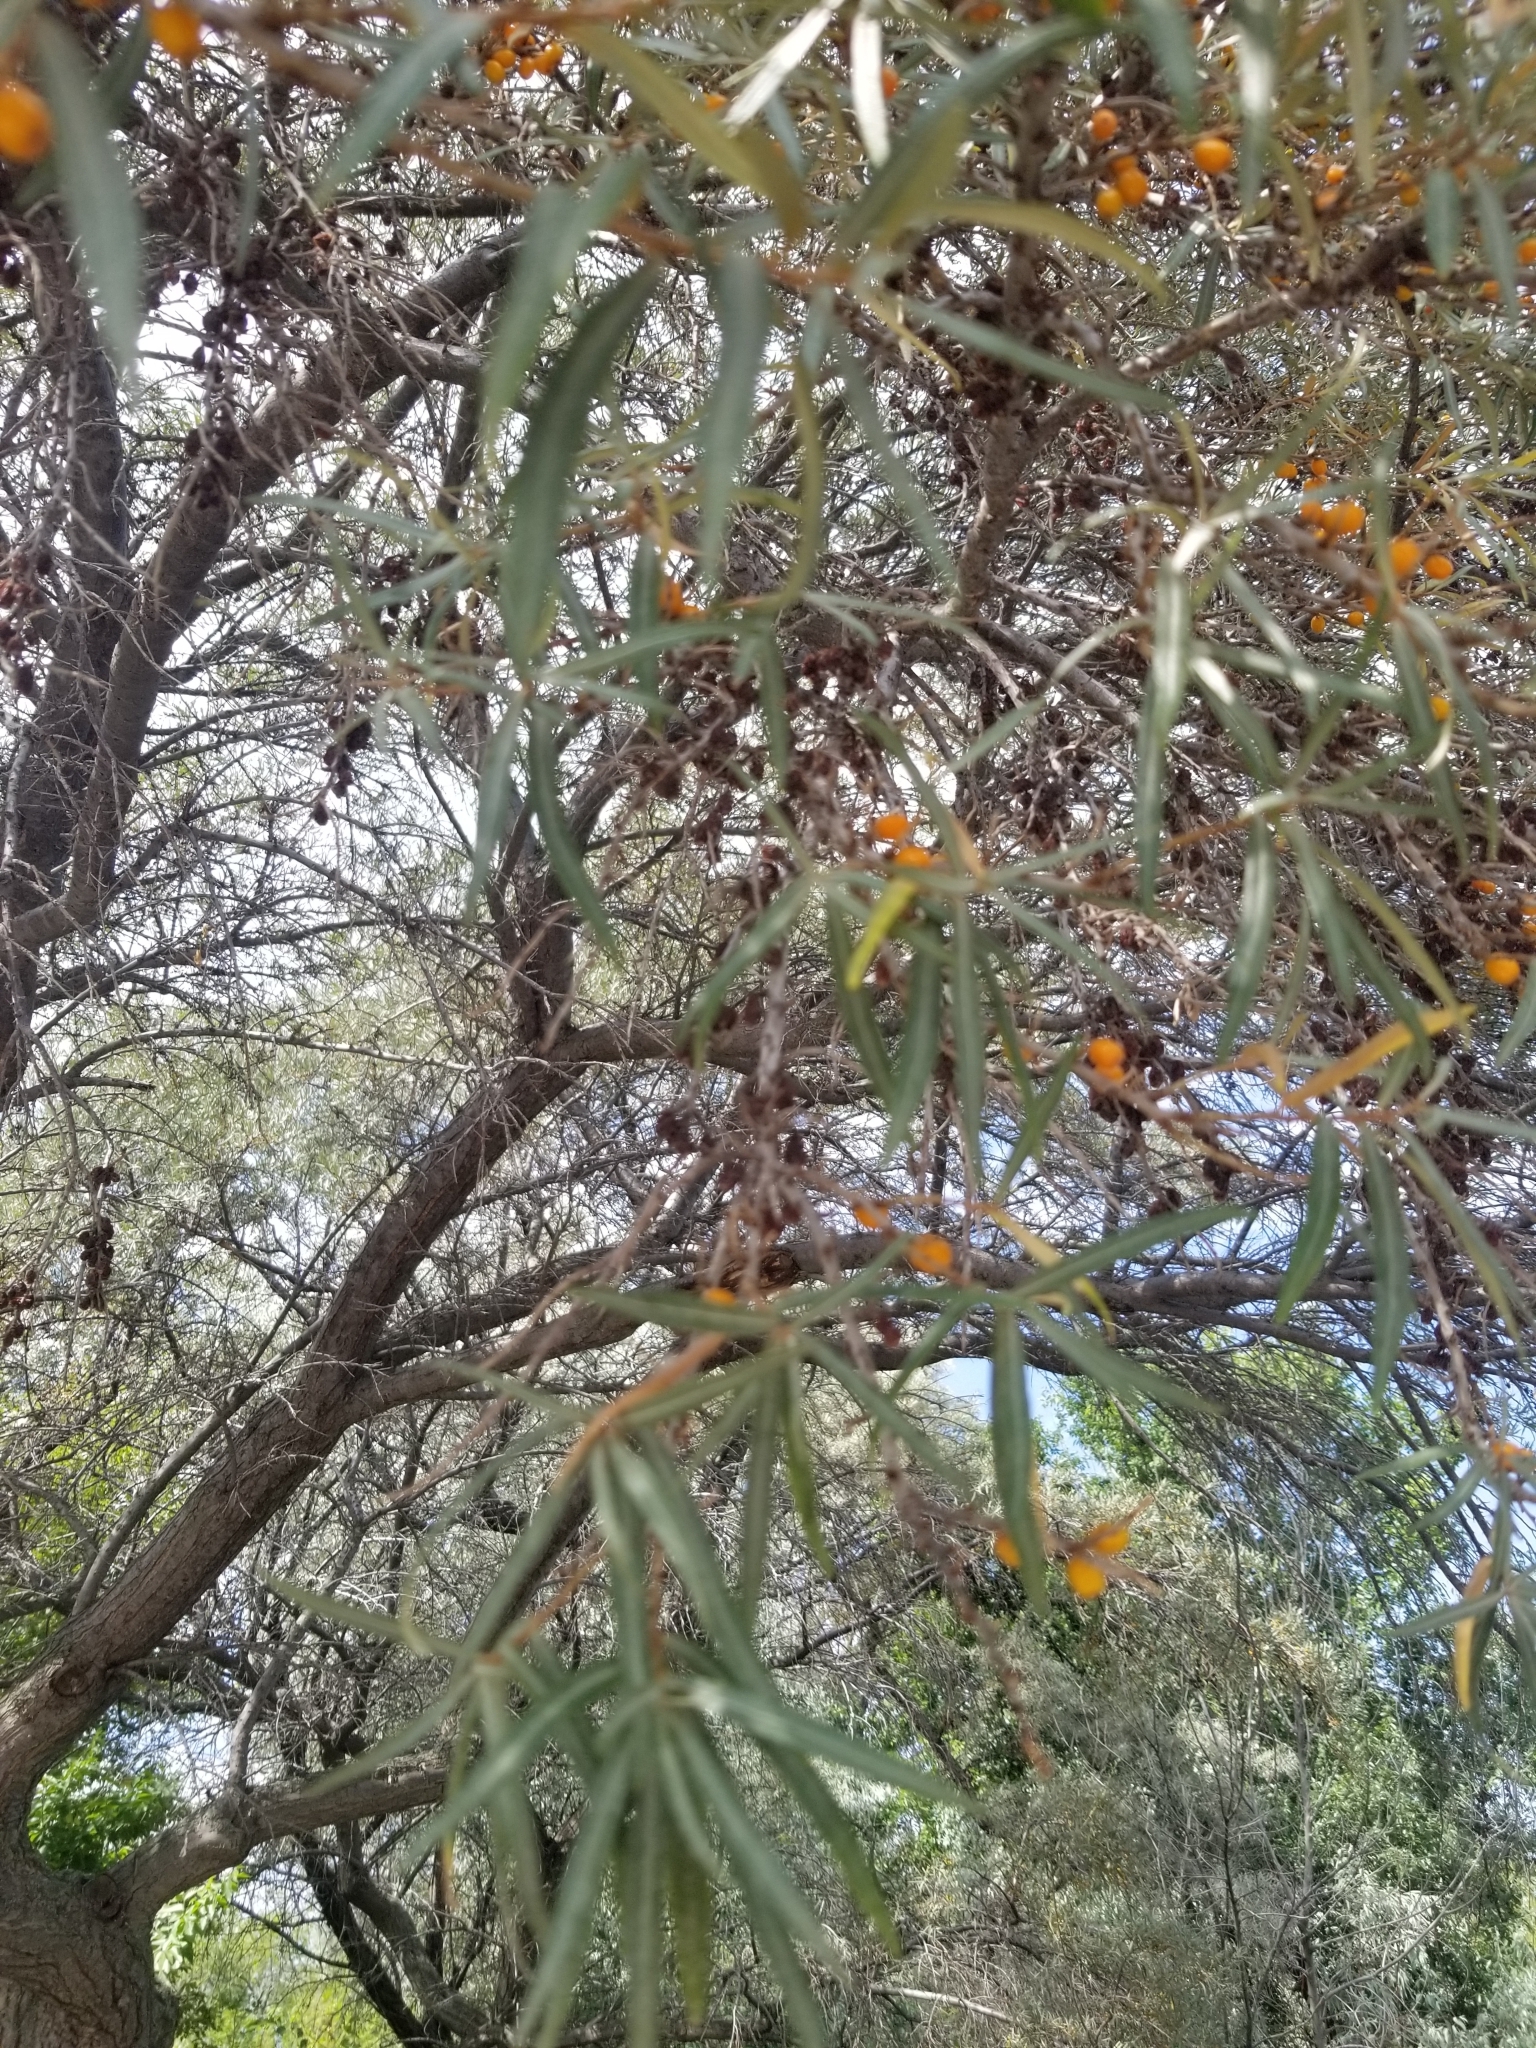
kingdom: Plantae
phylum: Tracheophyta
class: Magnoliopsida
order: Rosales
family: Elaeagnaceae
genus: Hippophae
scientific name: Hippophae rhamnoides
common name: Sea-buckthorn
